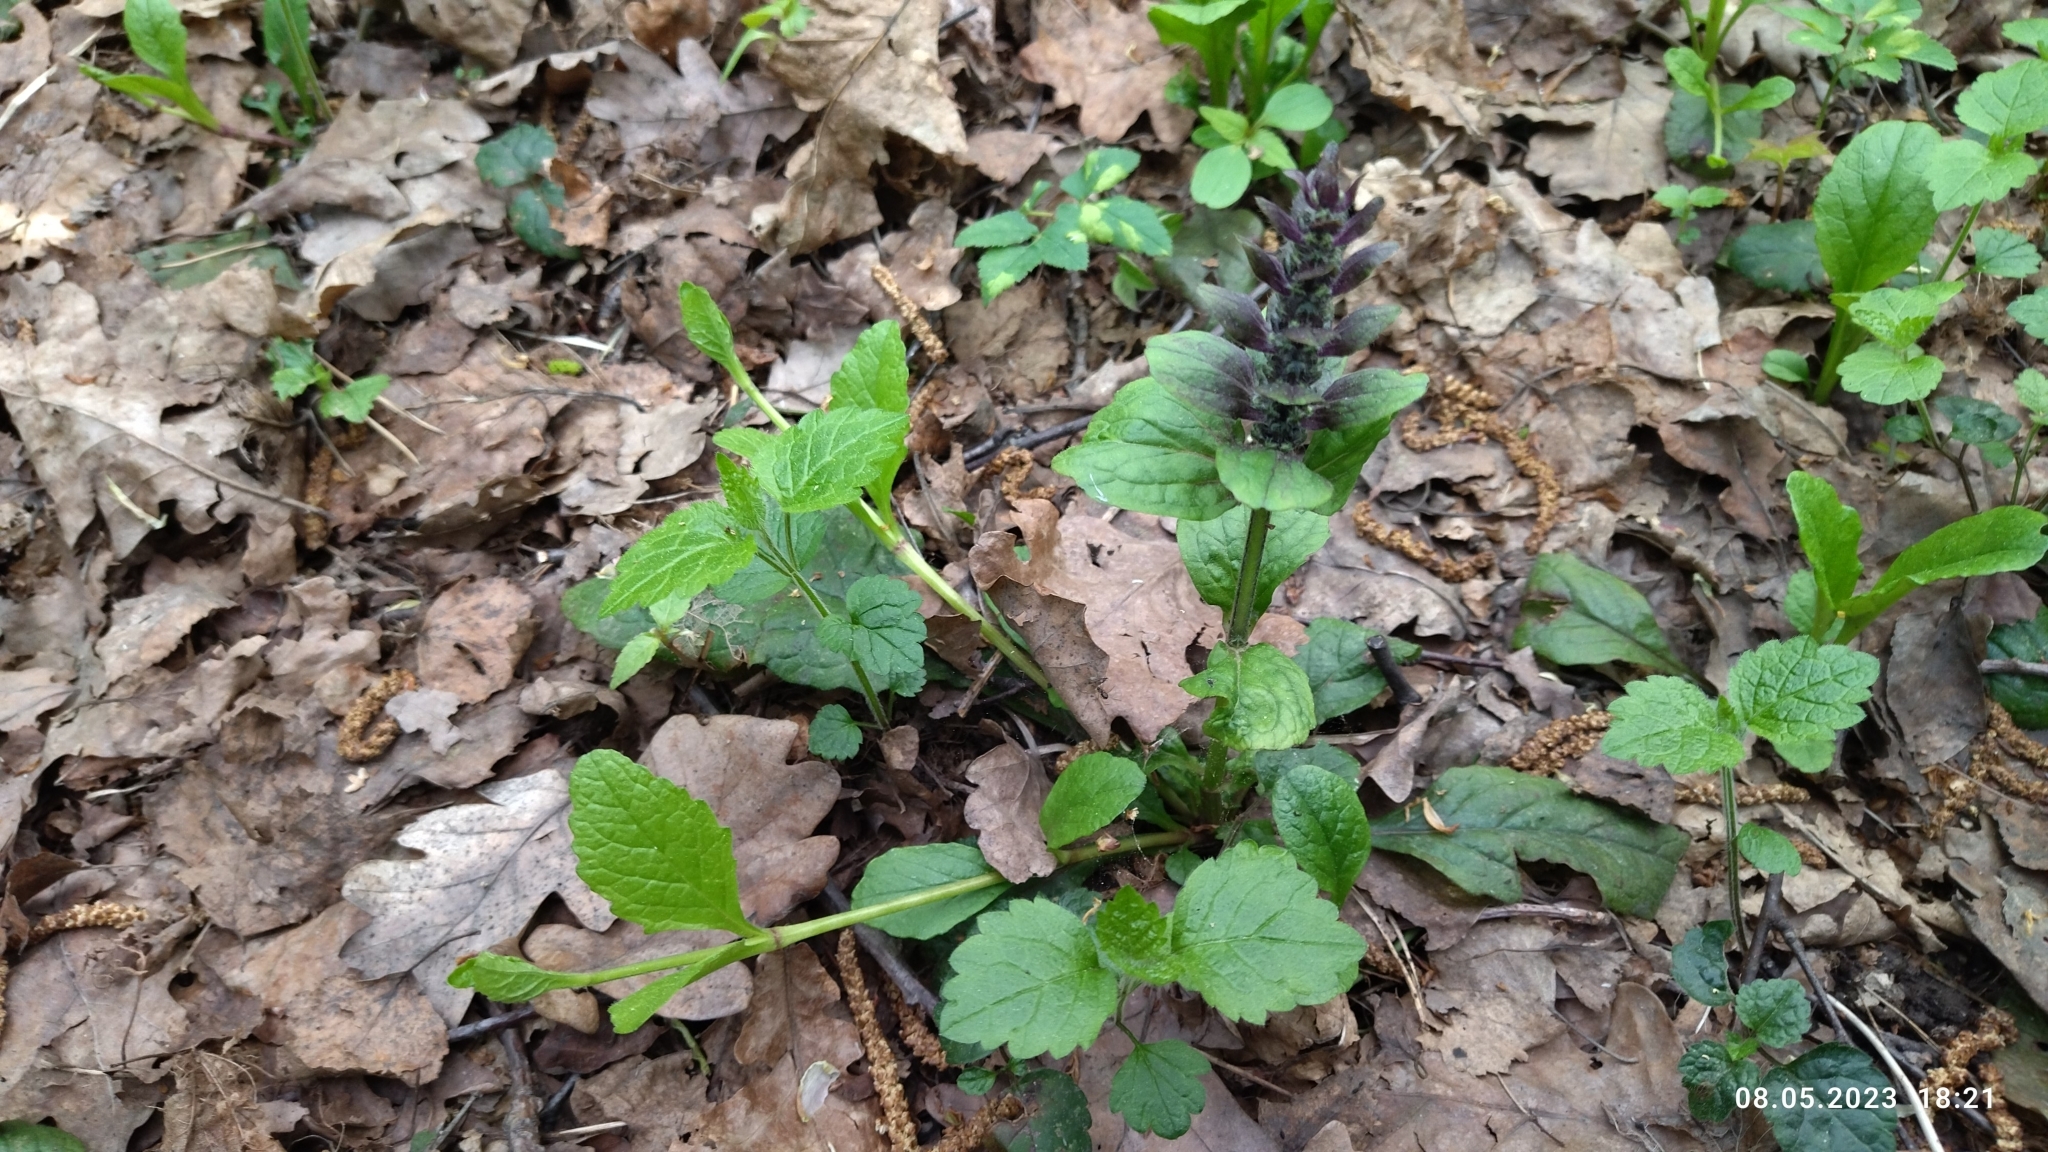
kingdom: Plantae
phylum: Tracheophyta
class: Magnoliopsida
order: Lamiales
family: Lamiaceae
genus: Ajuga
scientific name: Ajuga reptans
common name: Bugle
